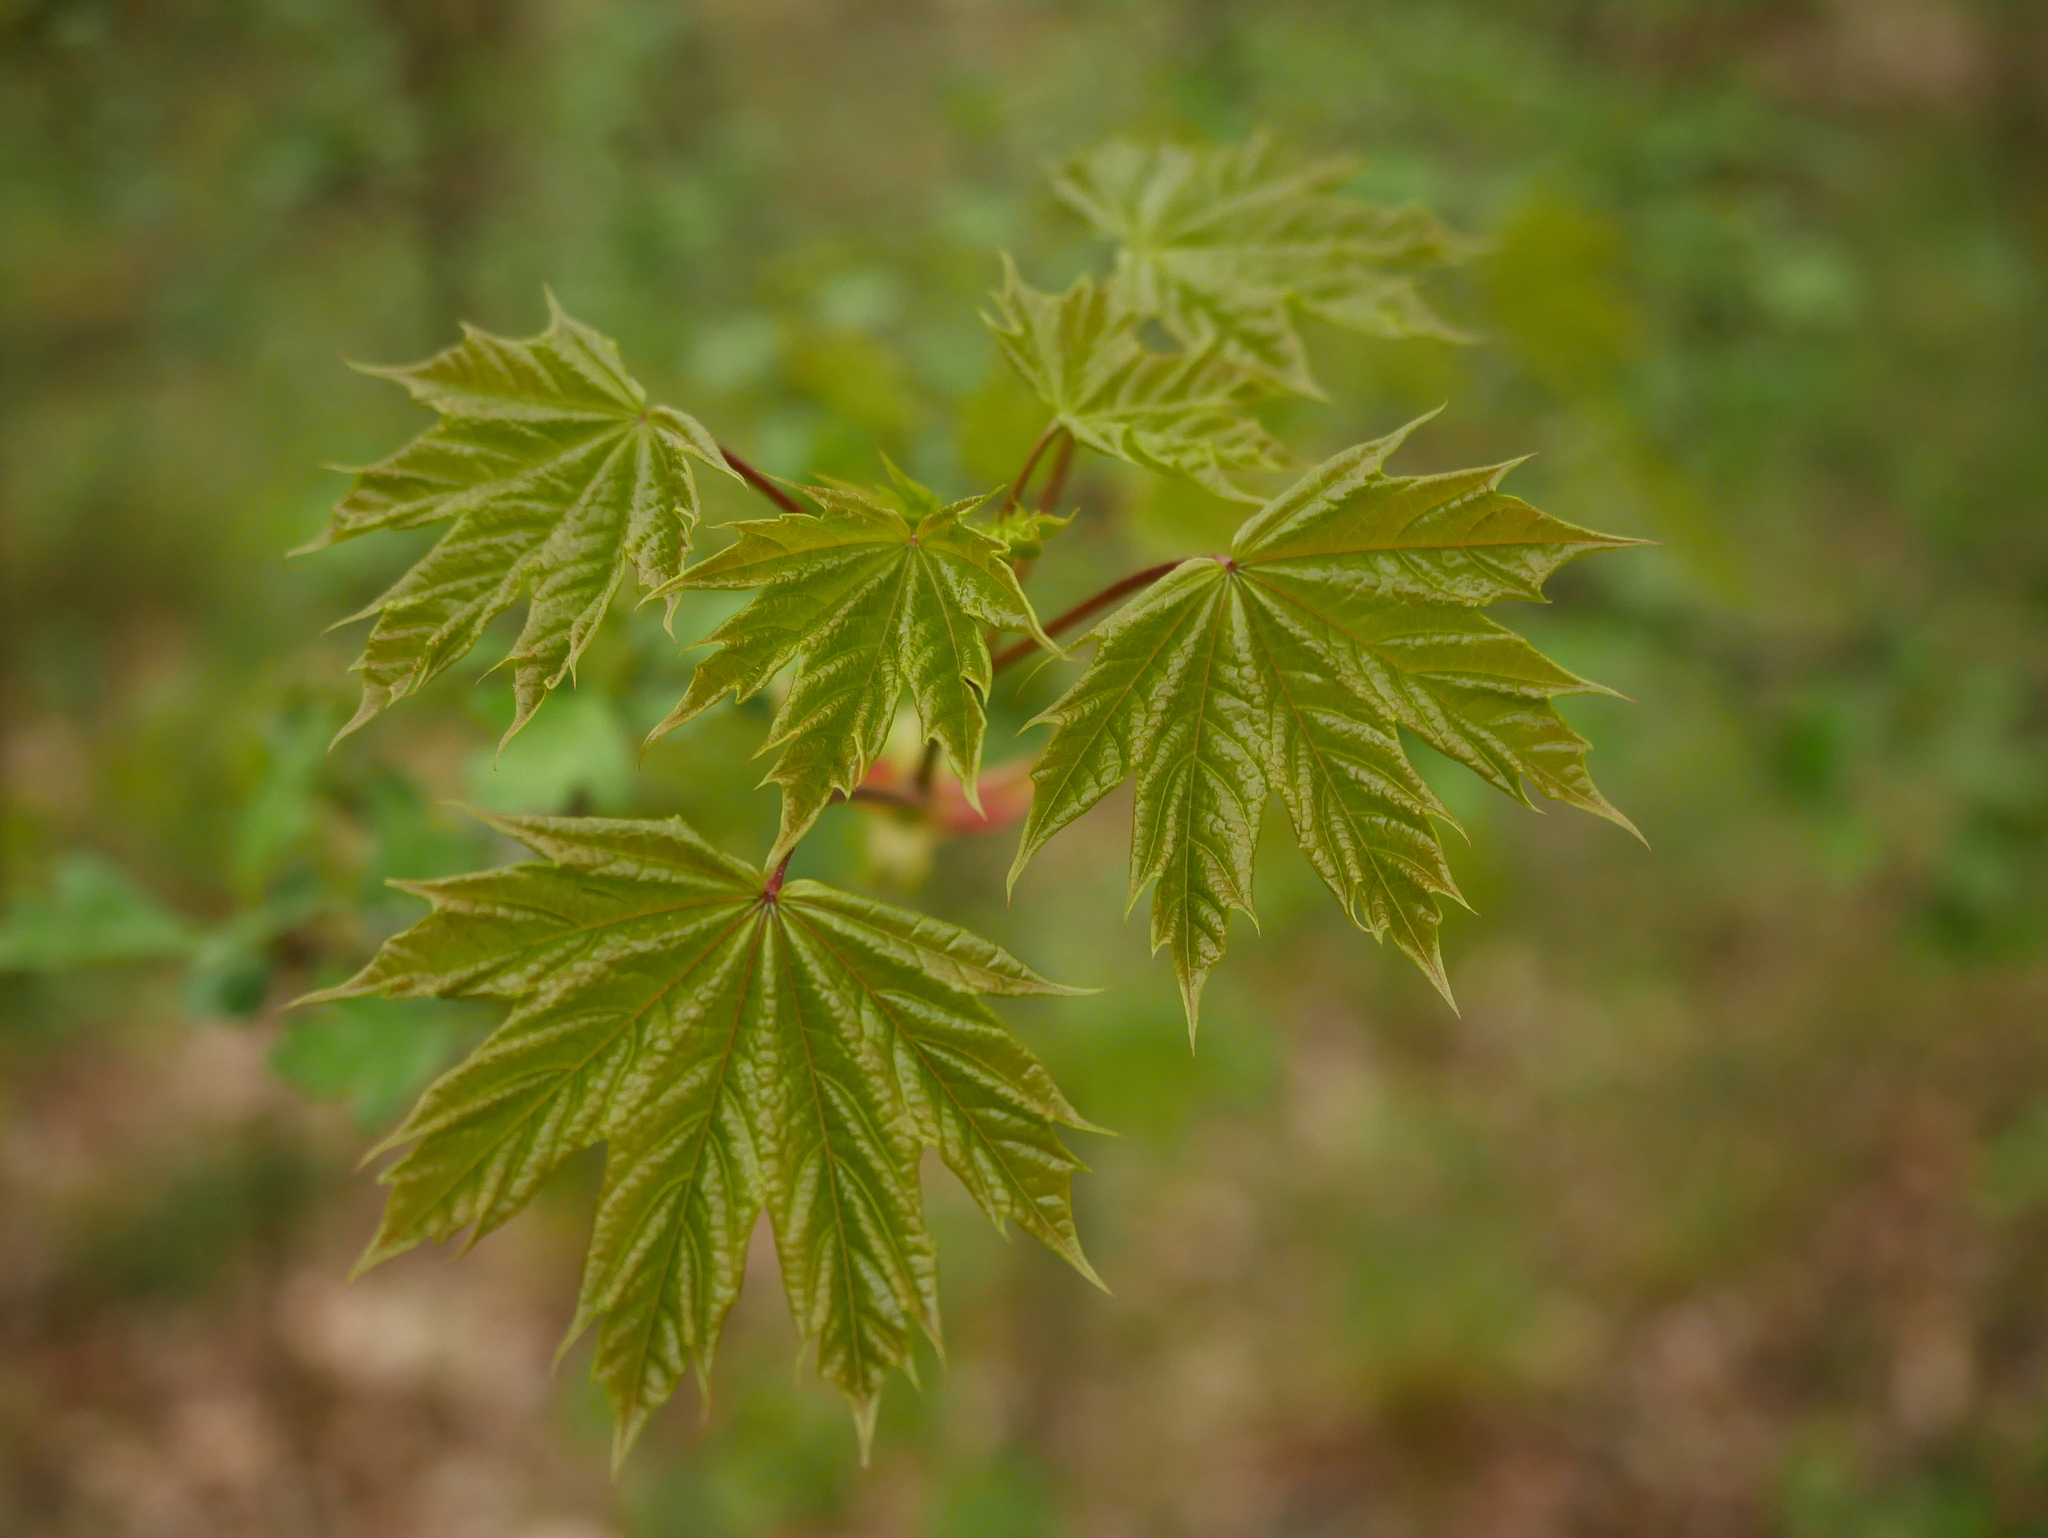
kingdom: Plantae
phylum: Tracheophyta
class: Magnoliopsida
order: Sapindales
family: Sapindaceae
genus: Acer
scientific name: Acer platanoides
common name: Norway maple
